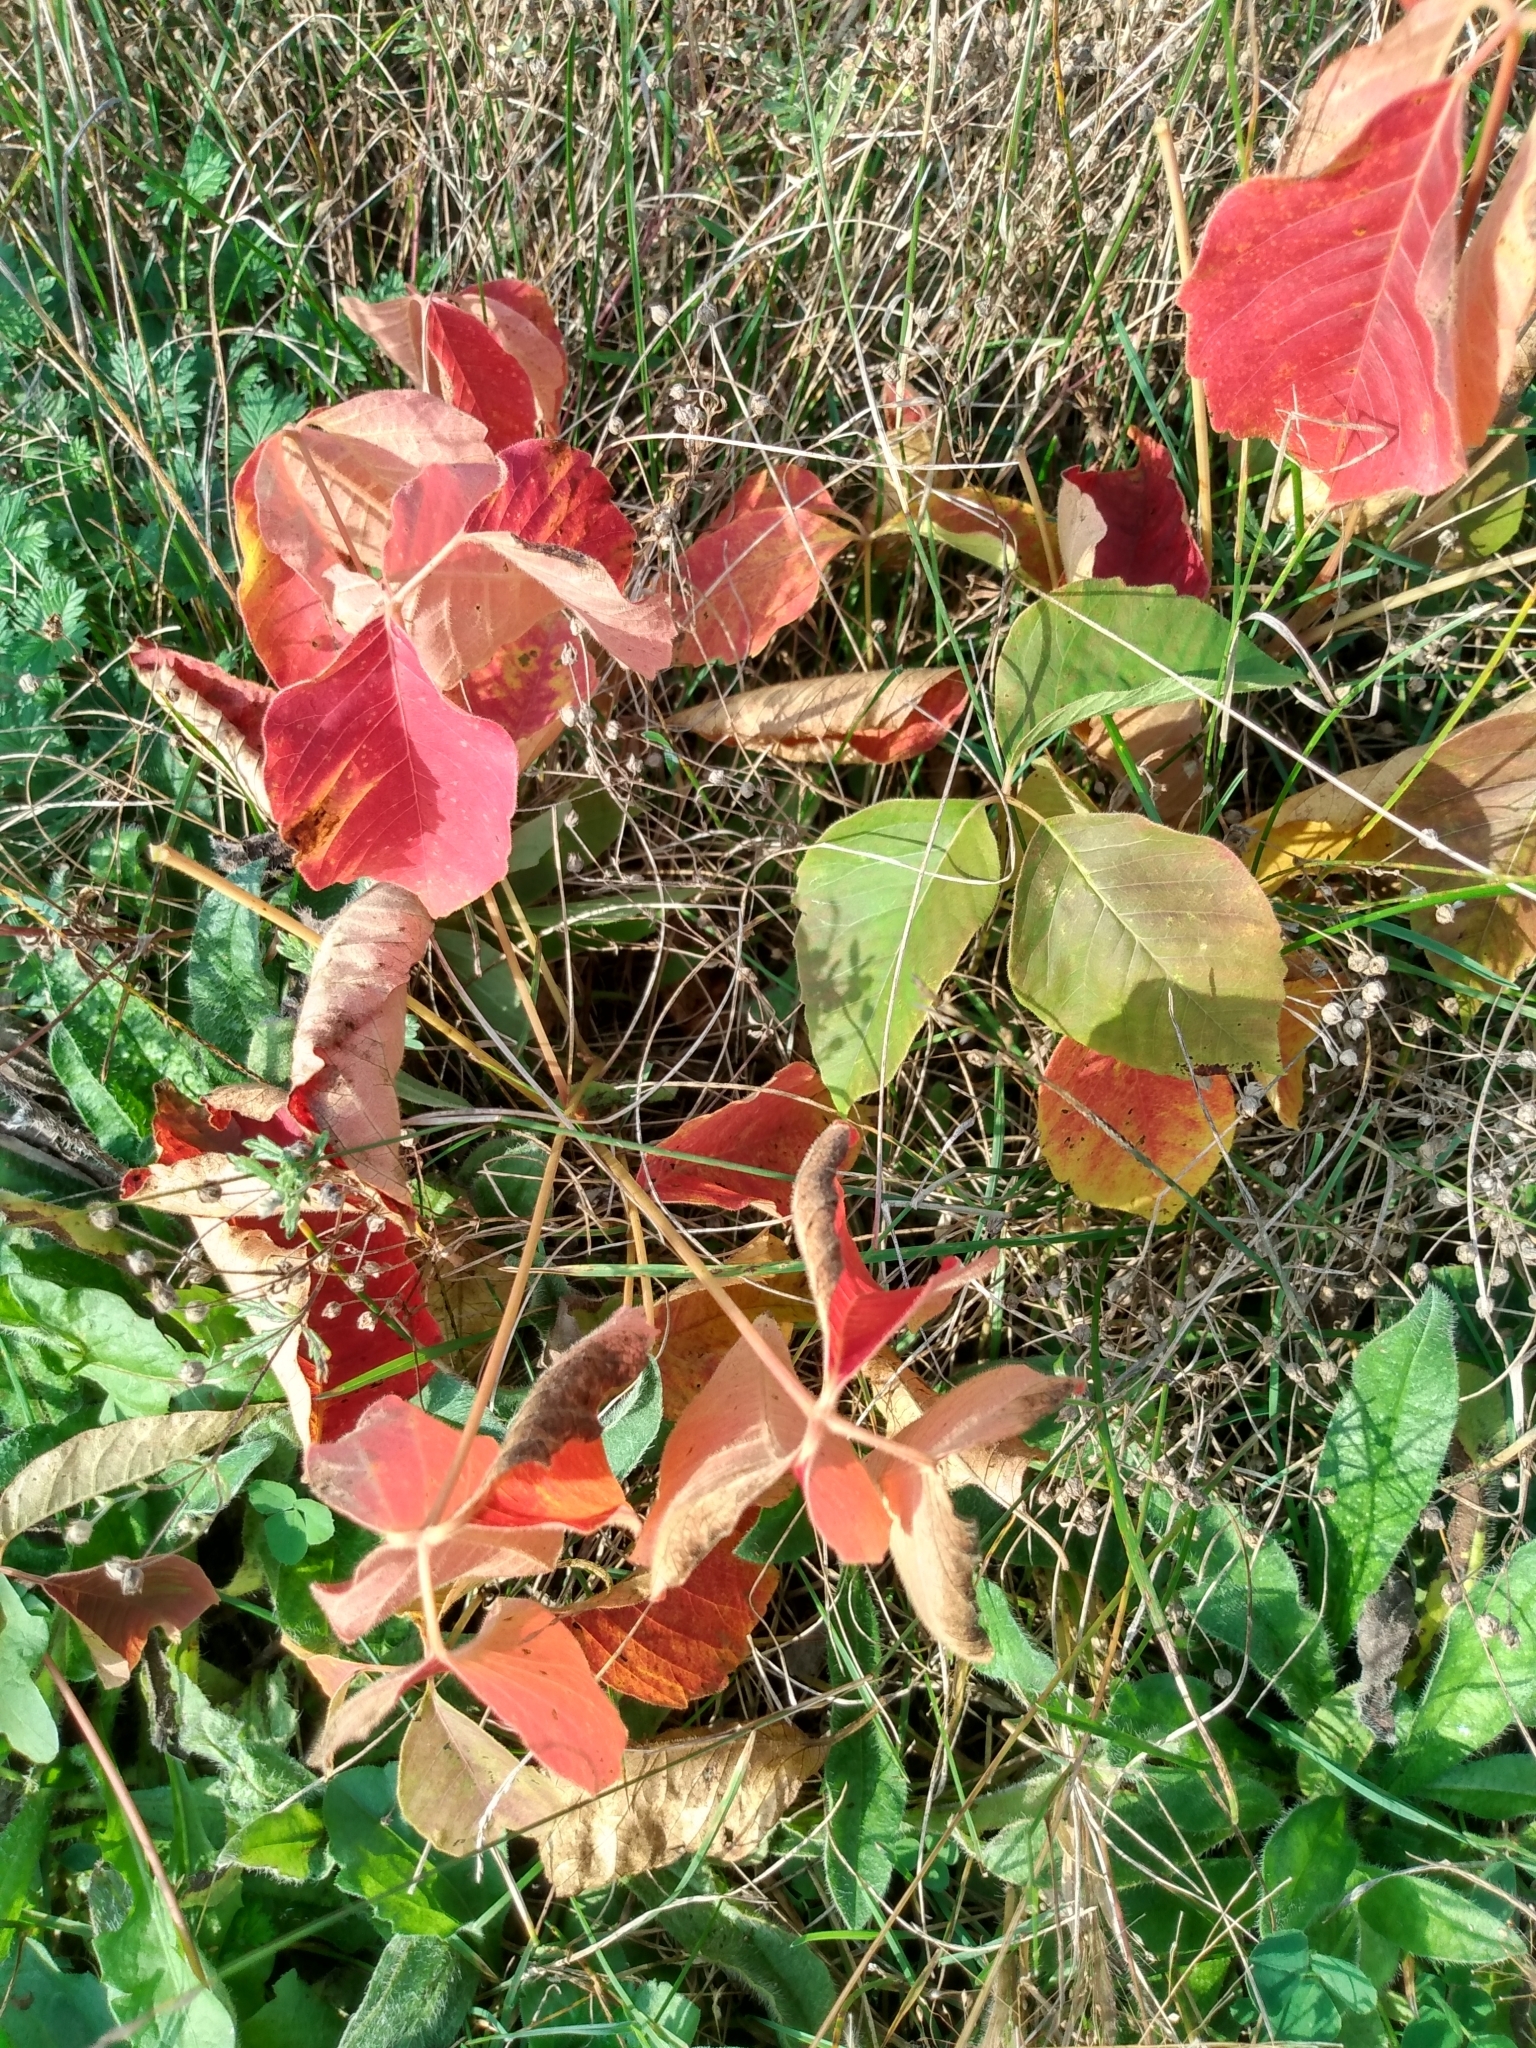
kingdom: Plantae
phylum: Tracheophyta
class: Magnoliopsida
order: Sapindales
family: Anacardiaceae
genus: Toxicodendron
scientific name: Toxicodendron radicans
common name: Poison ivy
